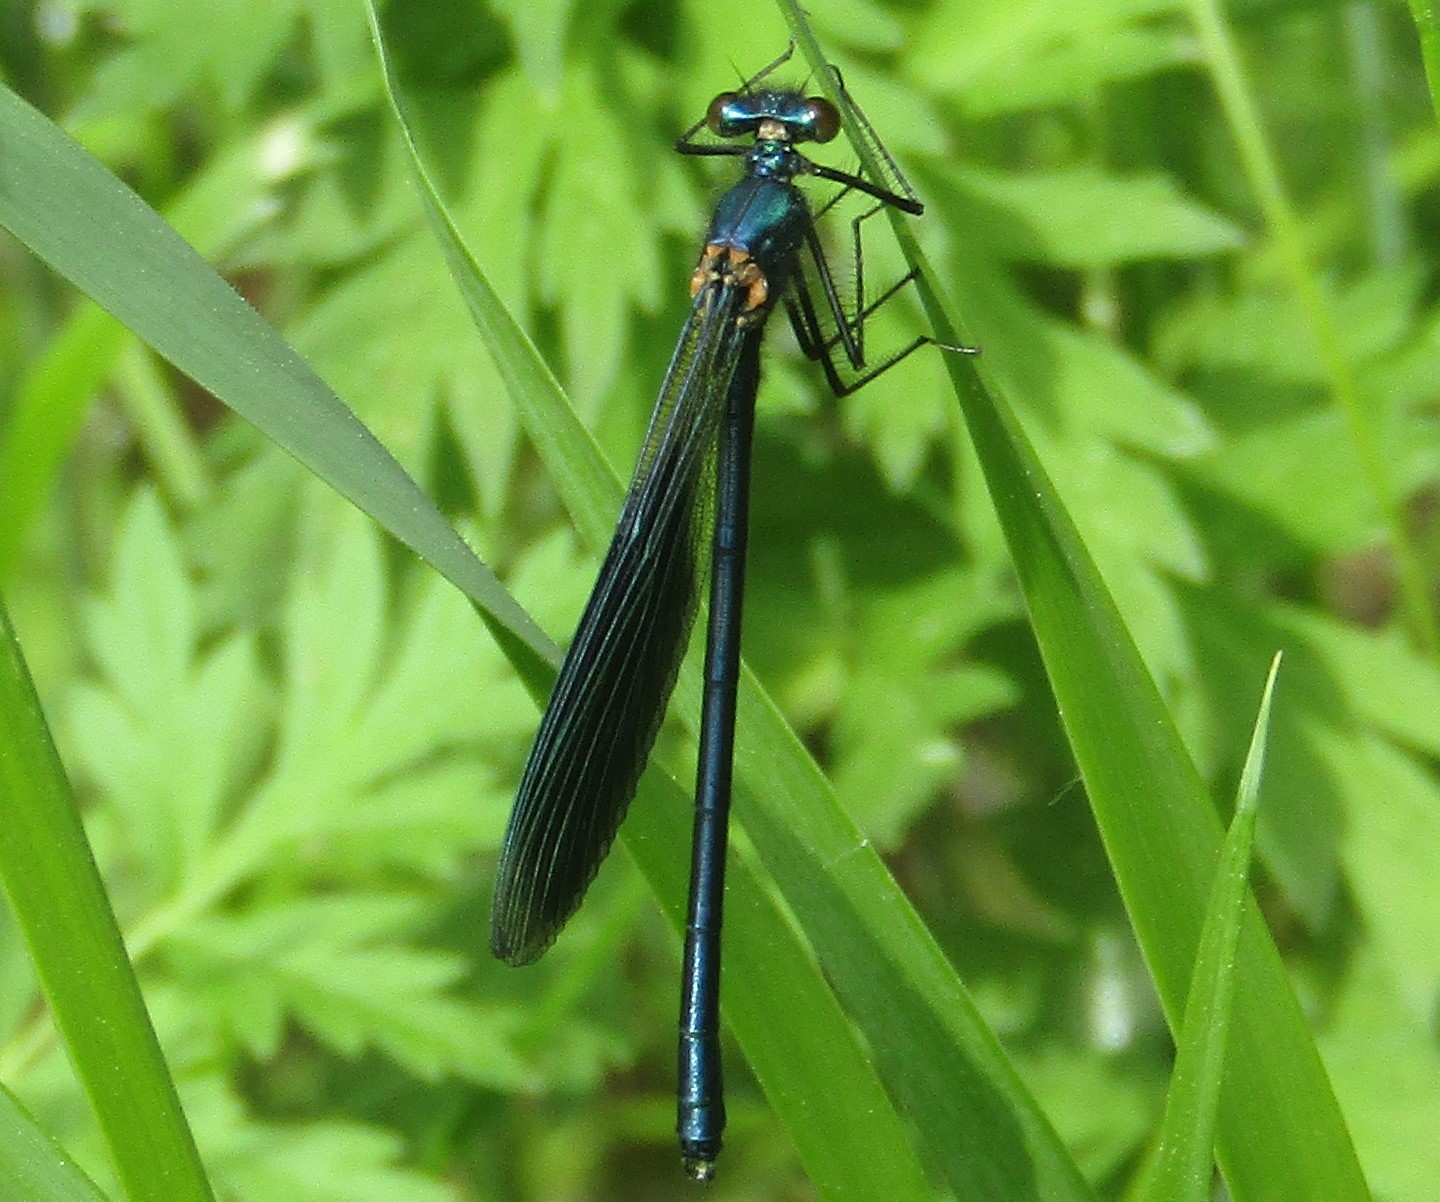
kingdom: Animalia
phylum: Arthropoda
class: Insecta
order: Odonata
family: Calopterygidae
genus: Calopteryx
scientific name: Calopteryx splendens
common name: Banded demoiselle
